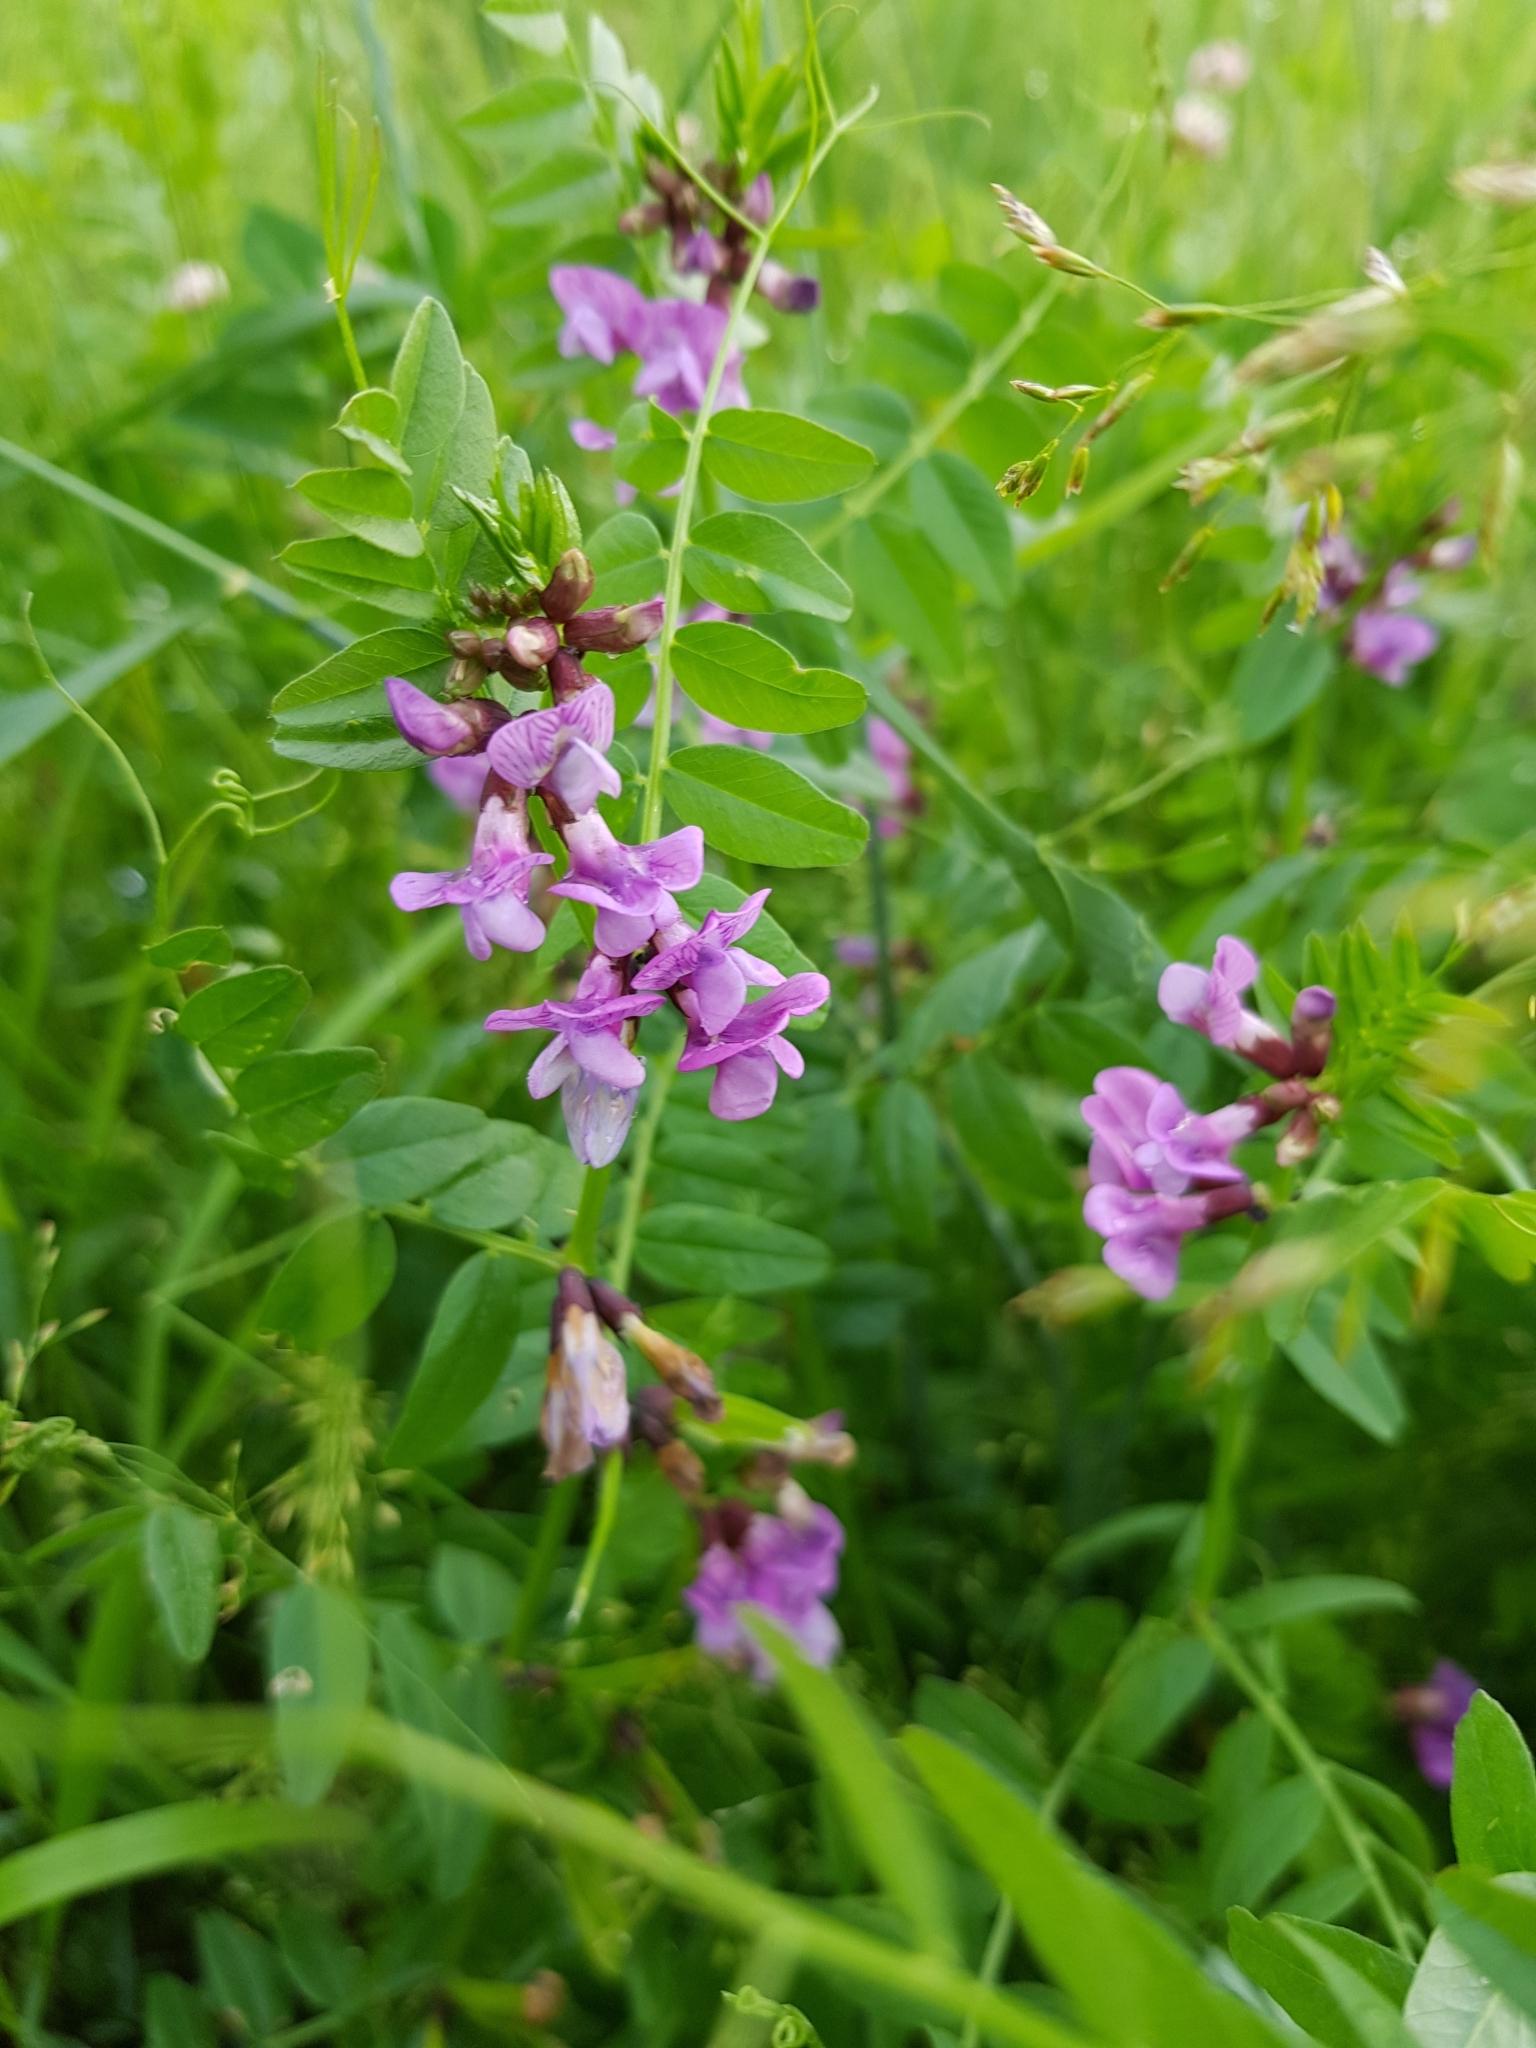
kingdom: Plantae
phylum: Tracheophyta
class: Magnoliopsida
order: Fabales
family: Fabaceae
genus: Vicia
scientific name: Vicia sepium
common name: Bush vetch
